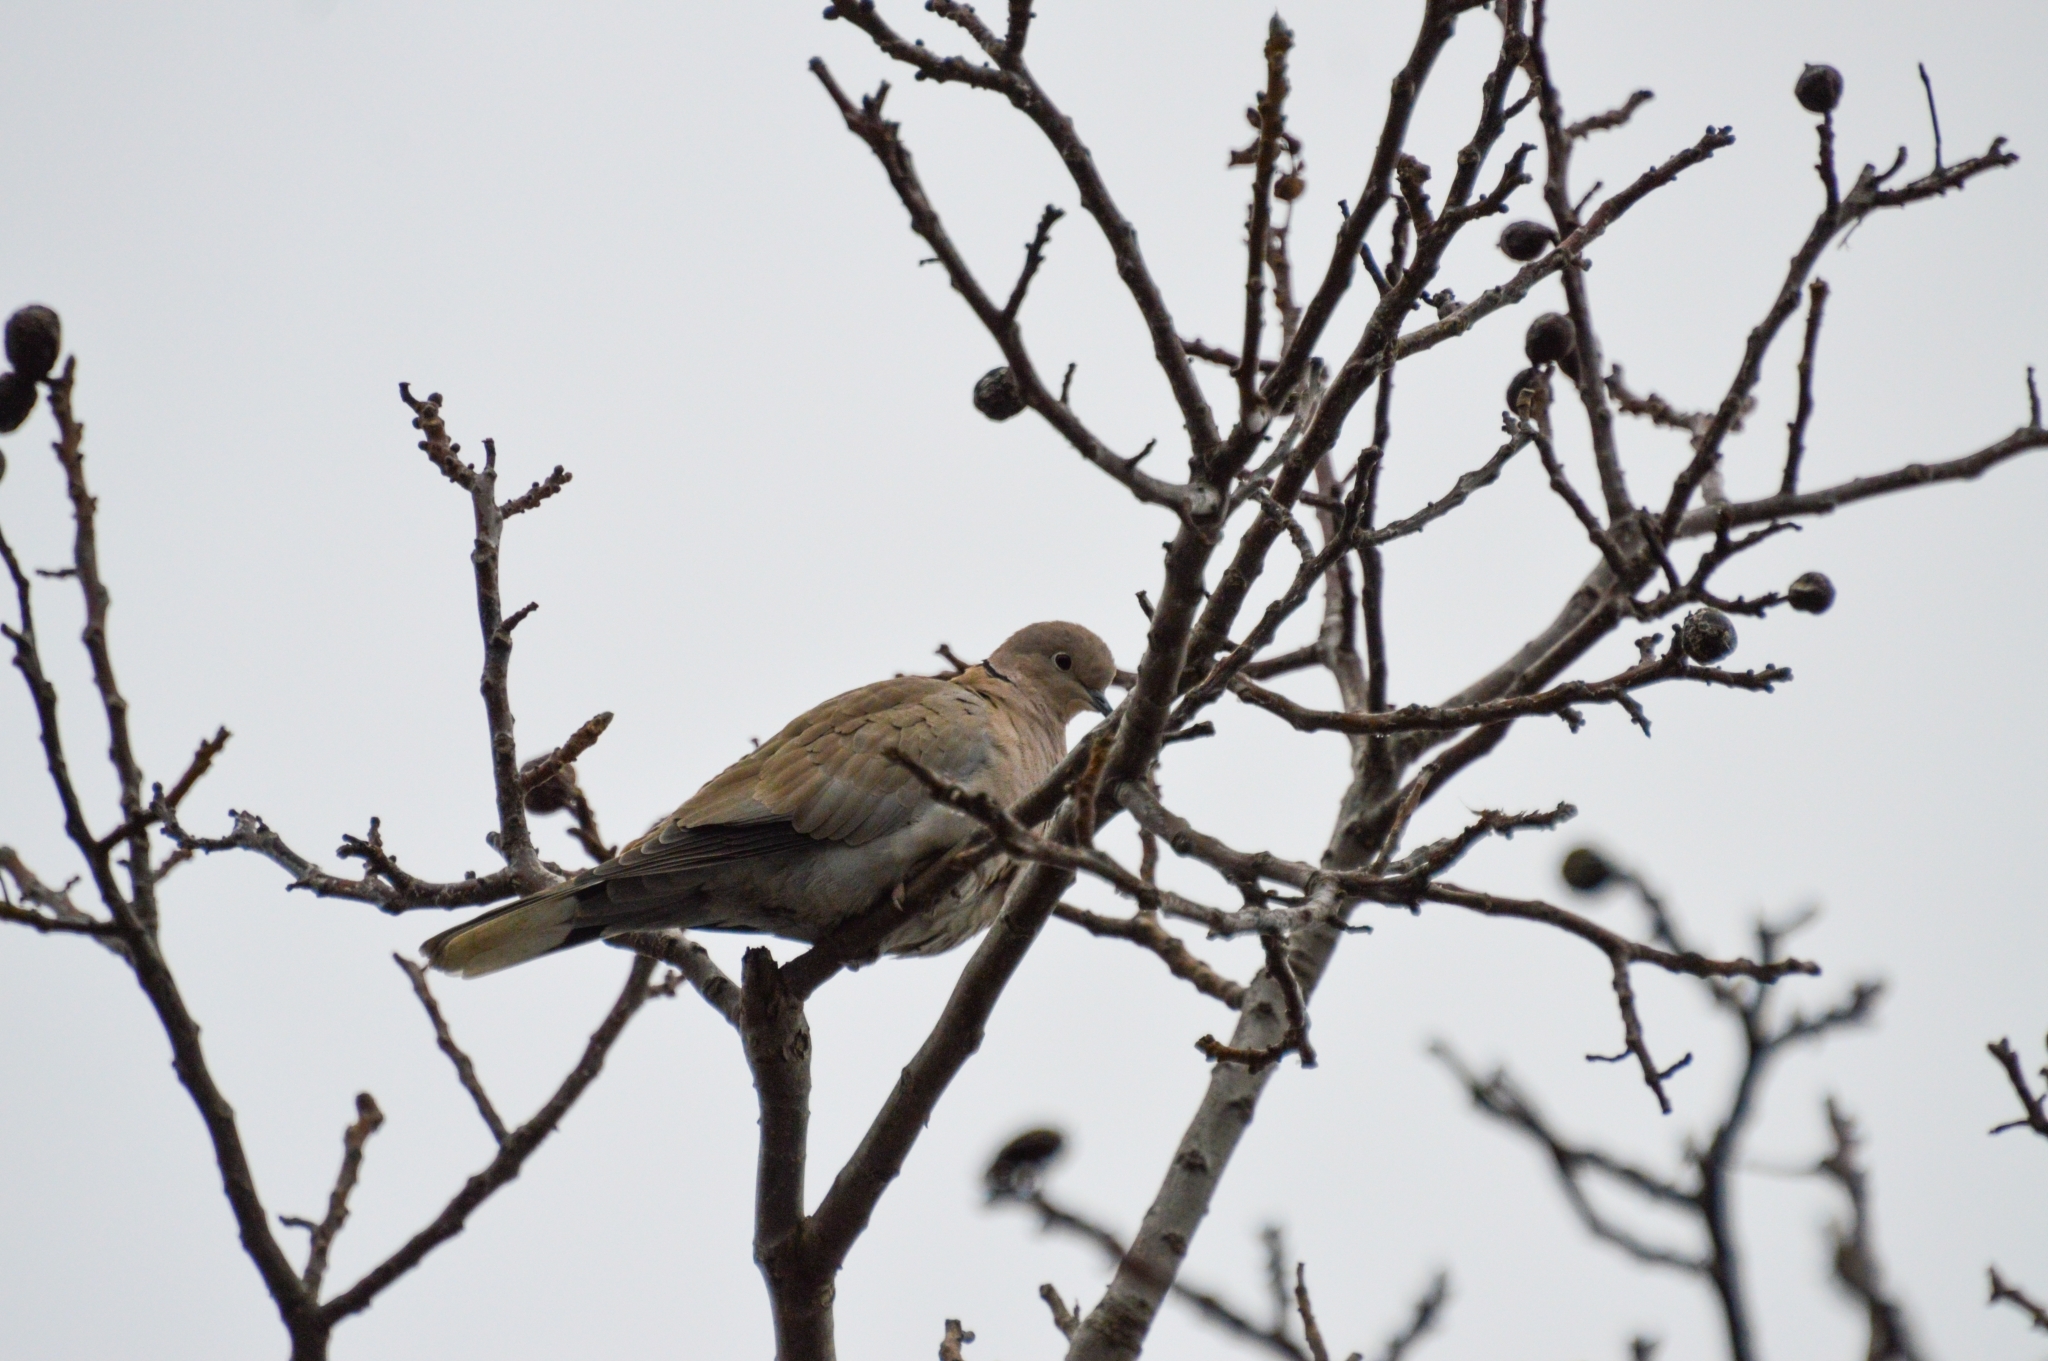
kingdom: Animalia
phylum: Chordata
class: Aves
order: Columbiformes
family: Columbidae
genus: Streptopelia
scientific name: Streptopelia decaocto
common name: Eurasian collared dove
